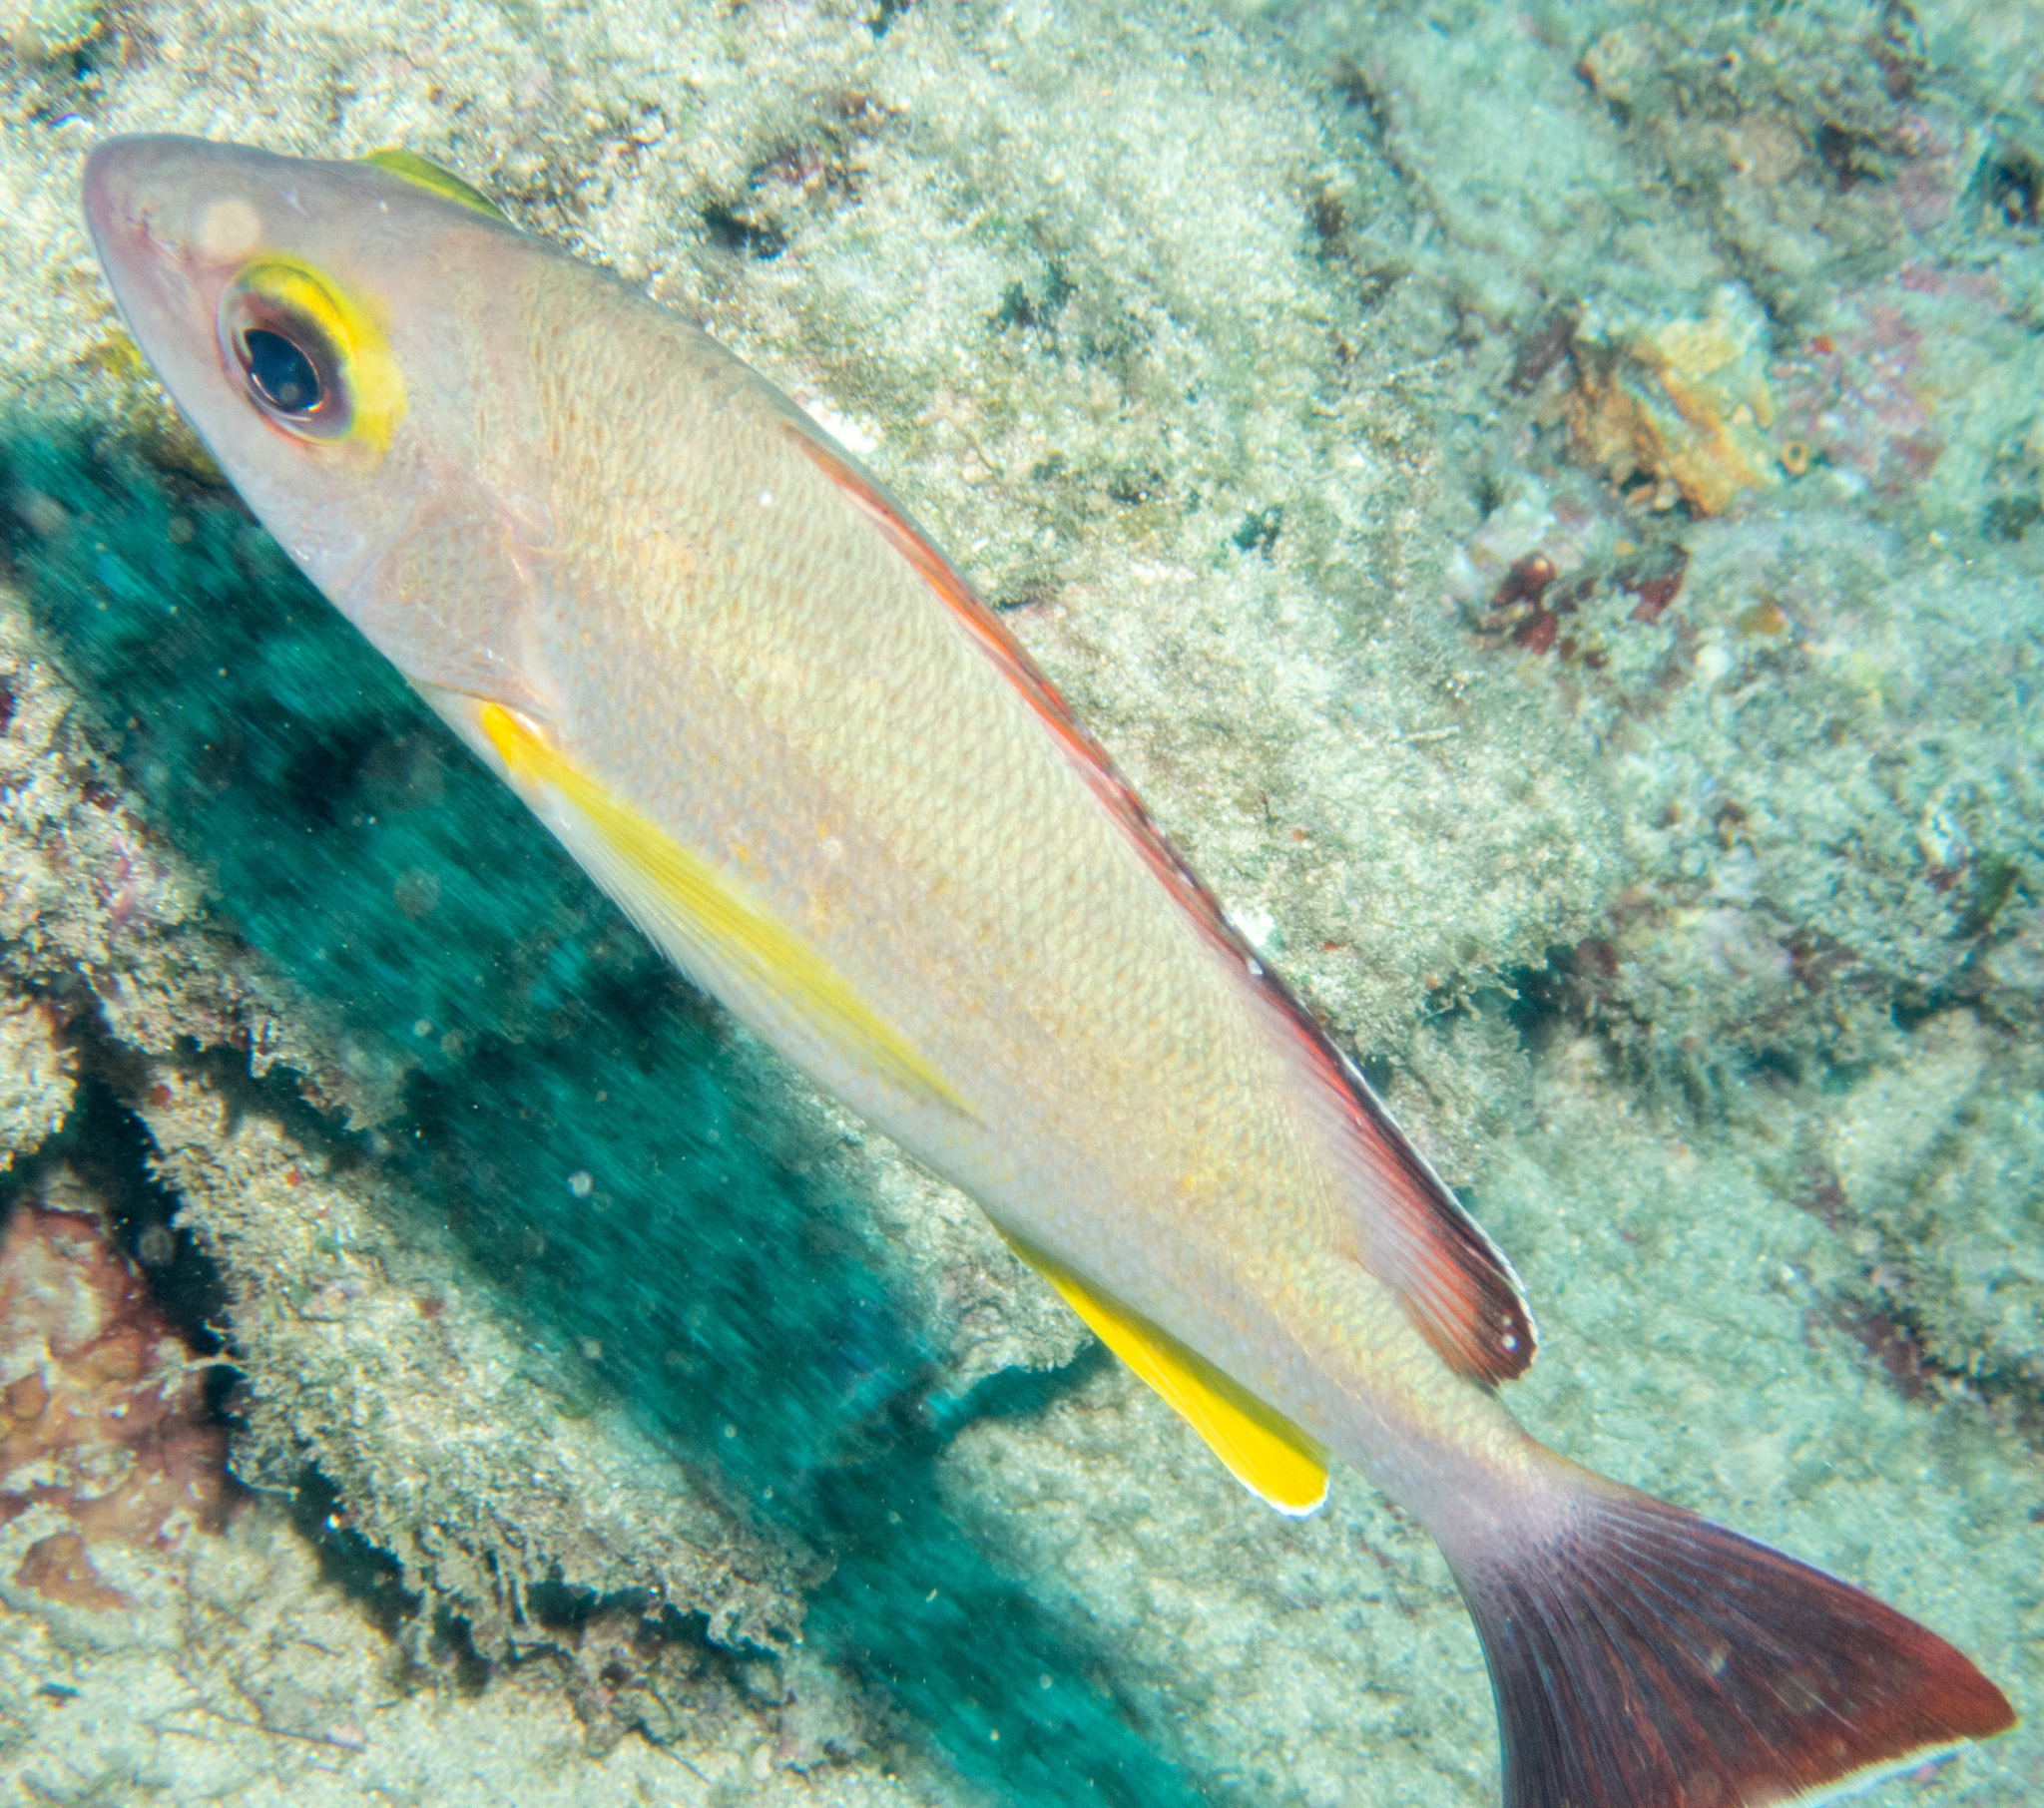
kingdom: Animalia
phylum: Chordata
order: Perciformes
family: Lutjanidae
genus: Lutjanus
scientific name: Lutjanus fulvus
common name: Blacktail snapper
